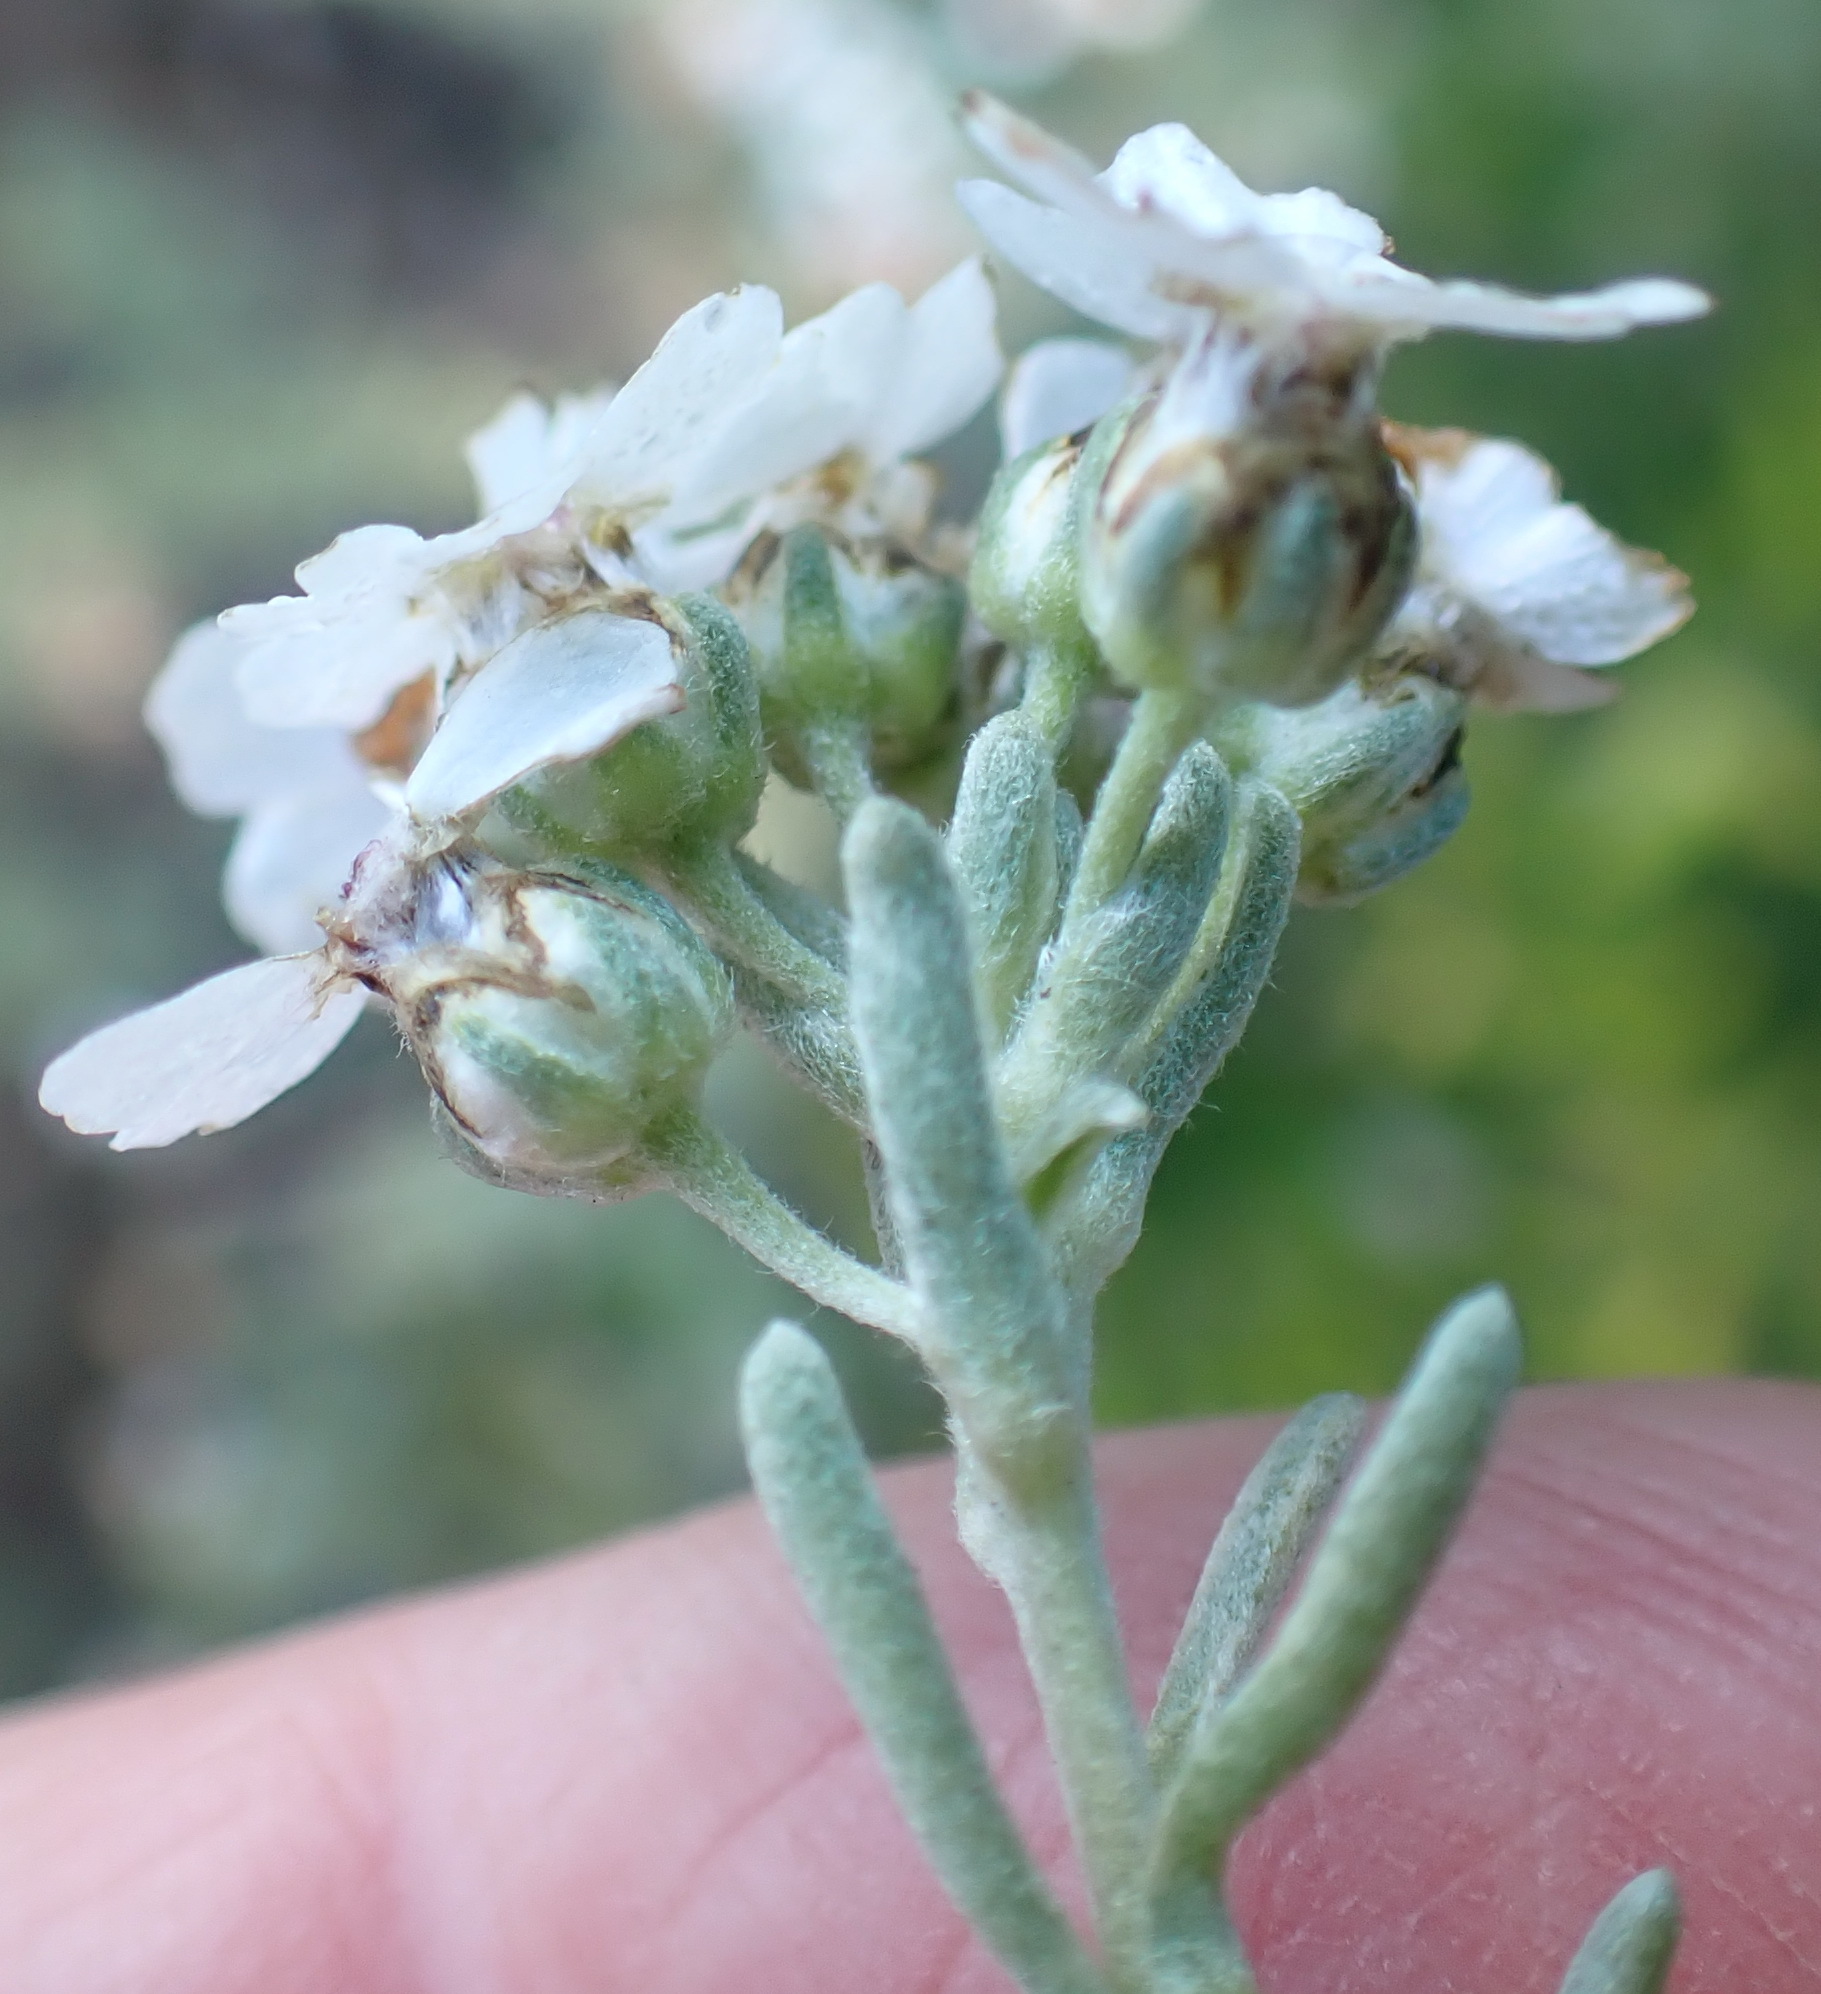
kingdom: Plantae
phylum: Tracheophyta
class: Magnoliopsida
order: Asterales
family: Asteraceae
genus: Eriocephalus
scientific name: Eriocephalus africanus
